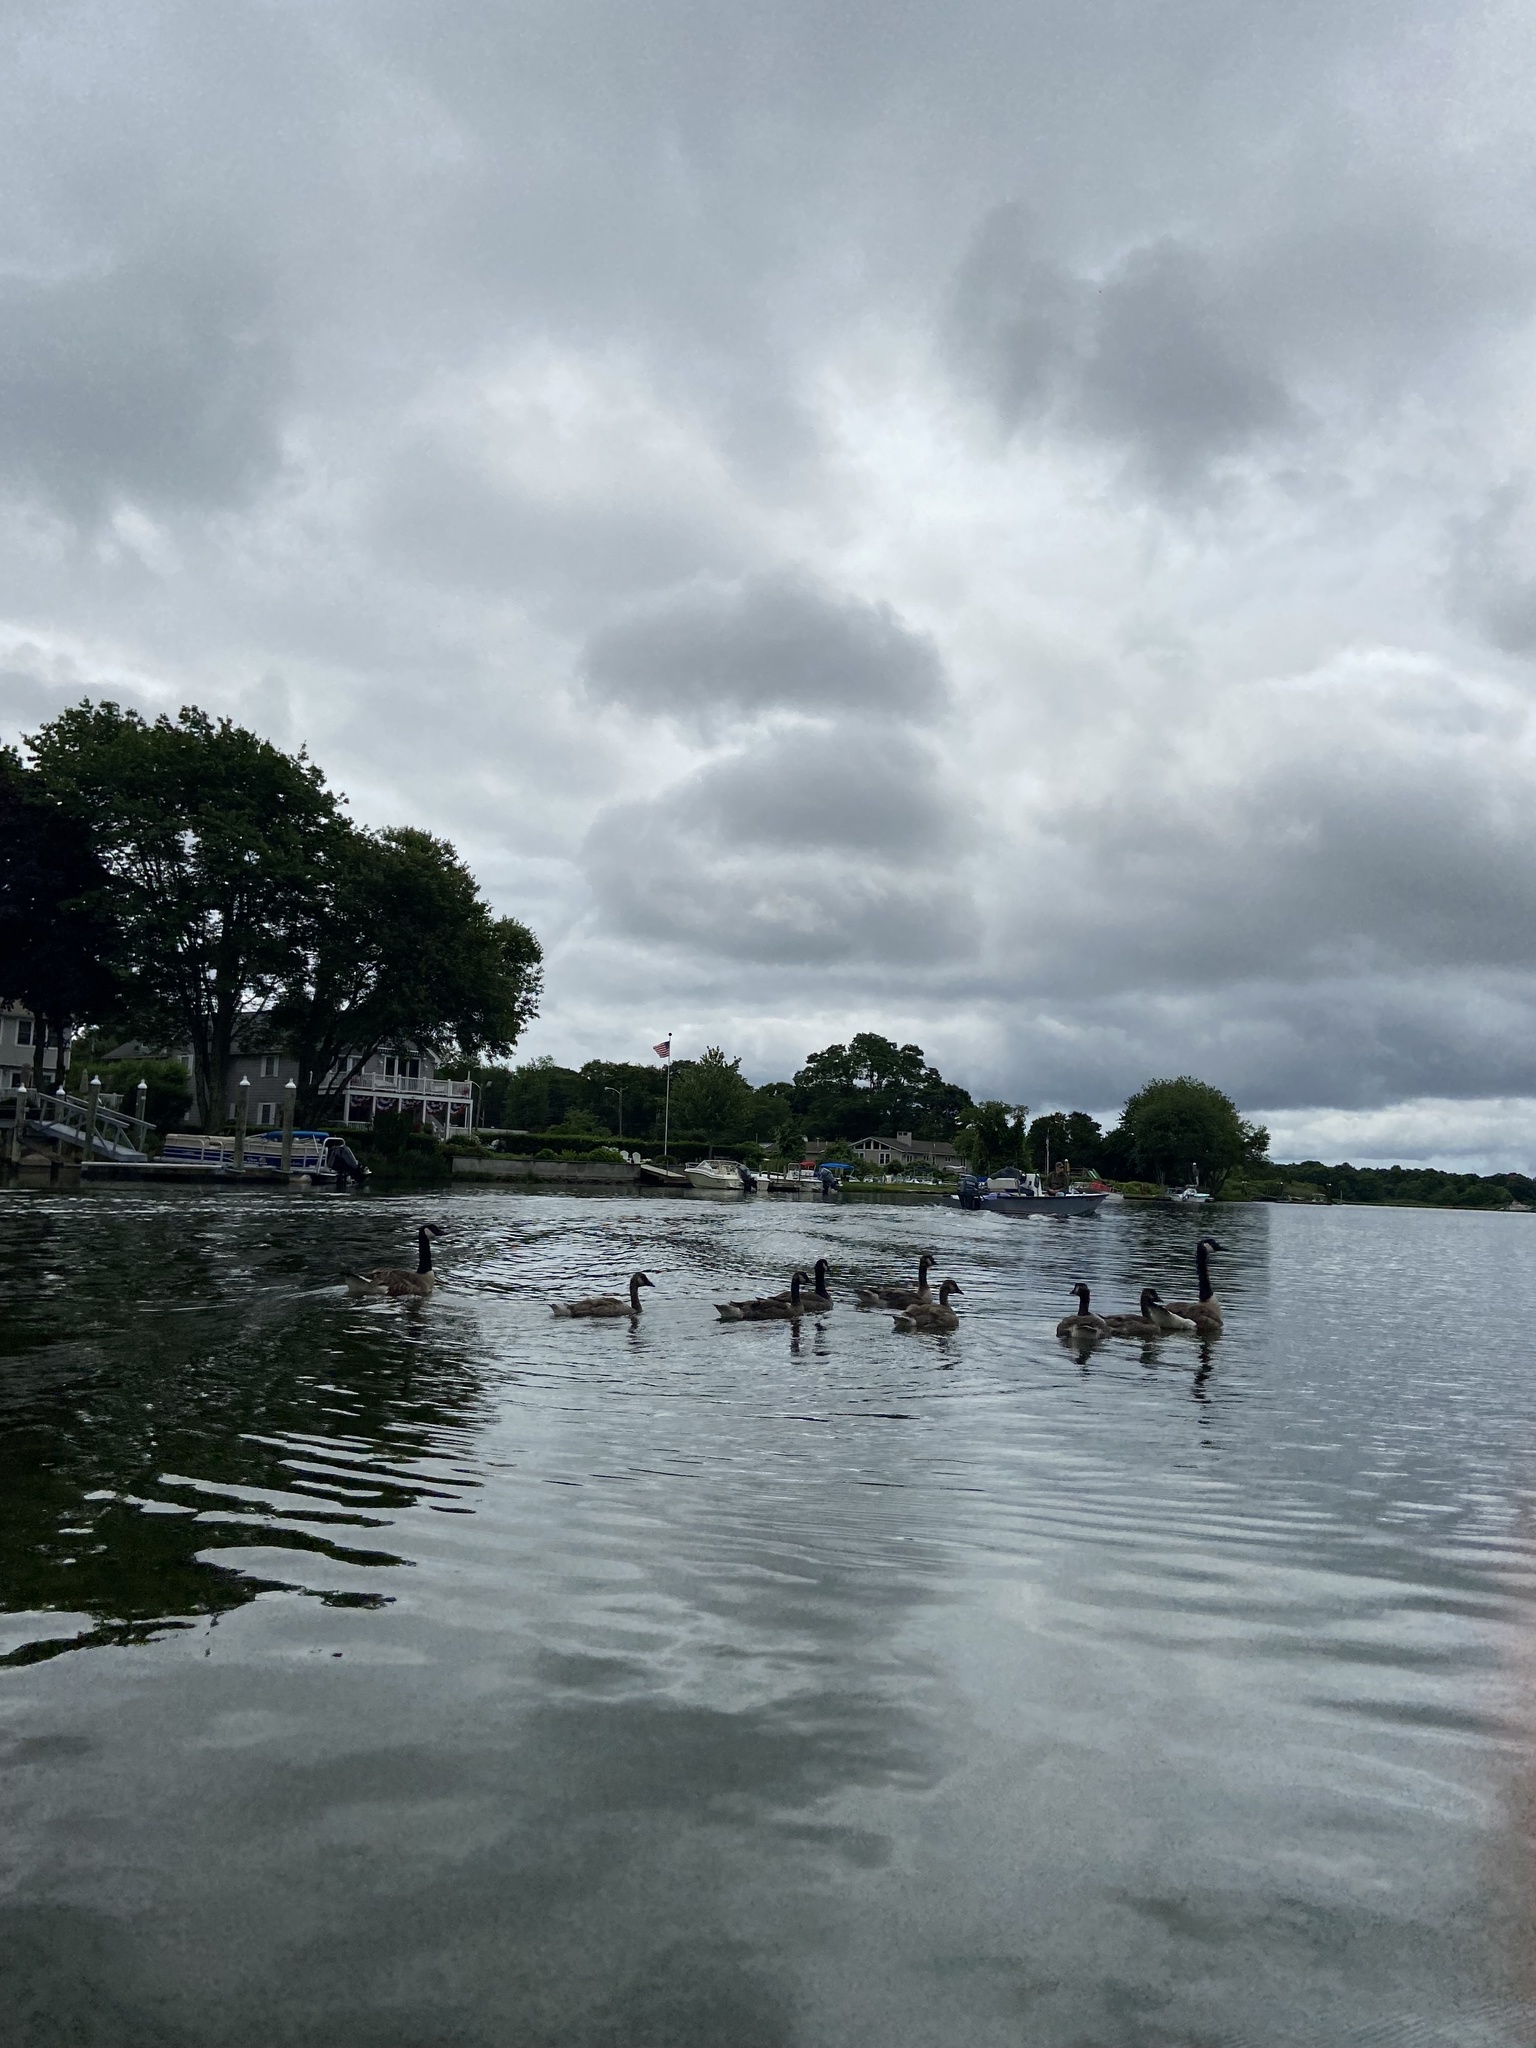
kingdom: Animalia
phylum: Chordata
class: Aves
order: Anseriformes
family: Anatidae
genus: Branta
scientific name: Branta canadensis
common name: Canada goose
